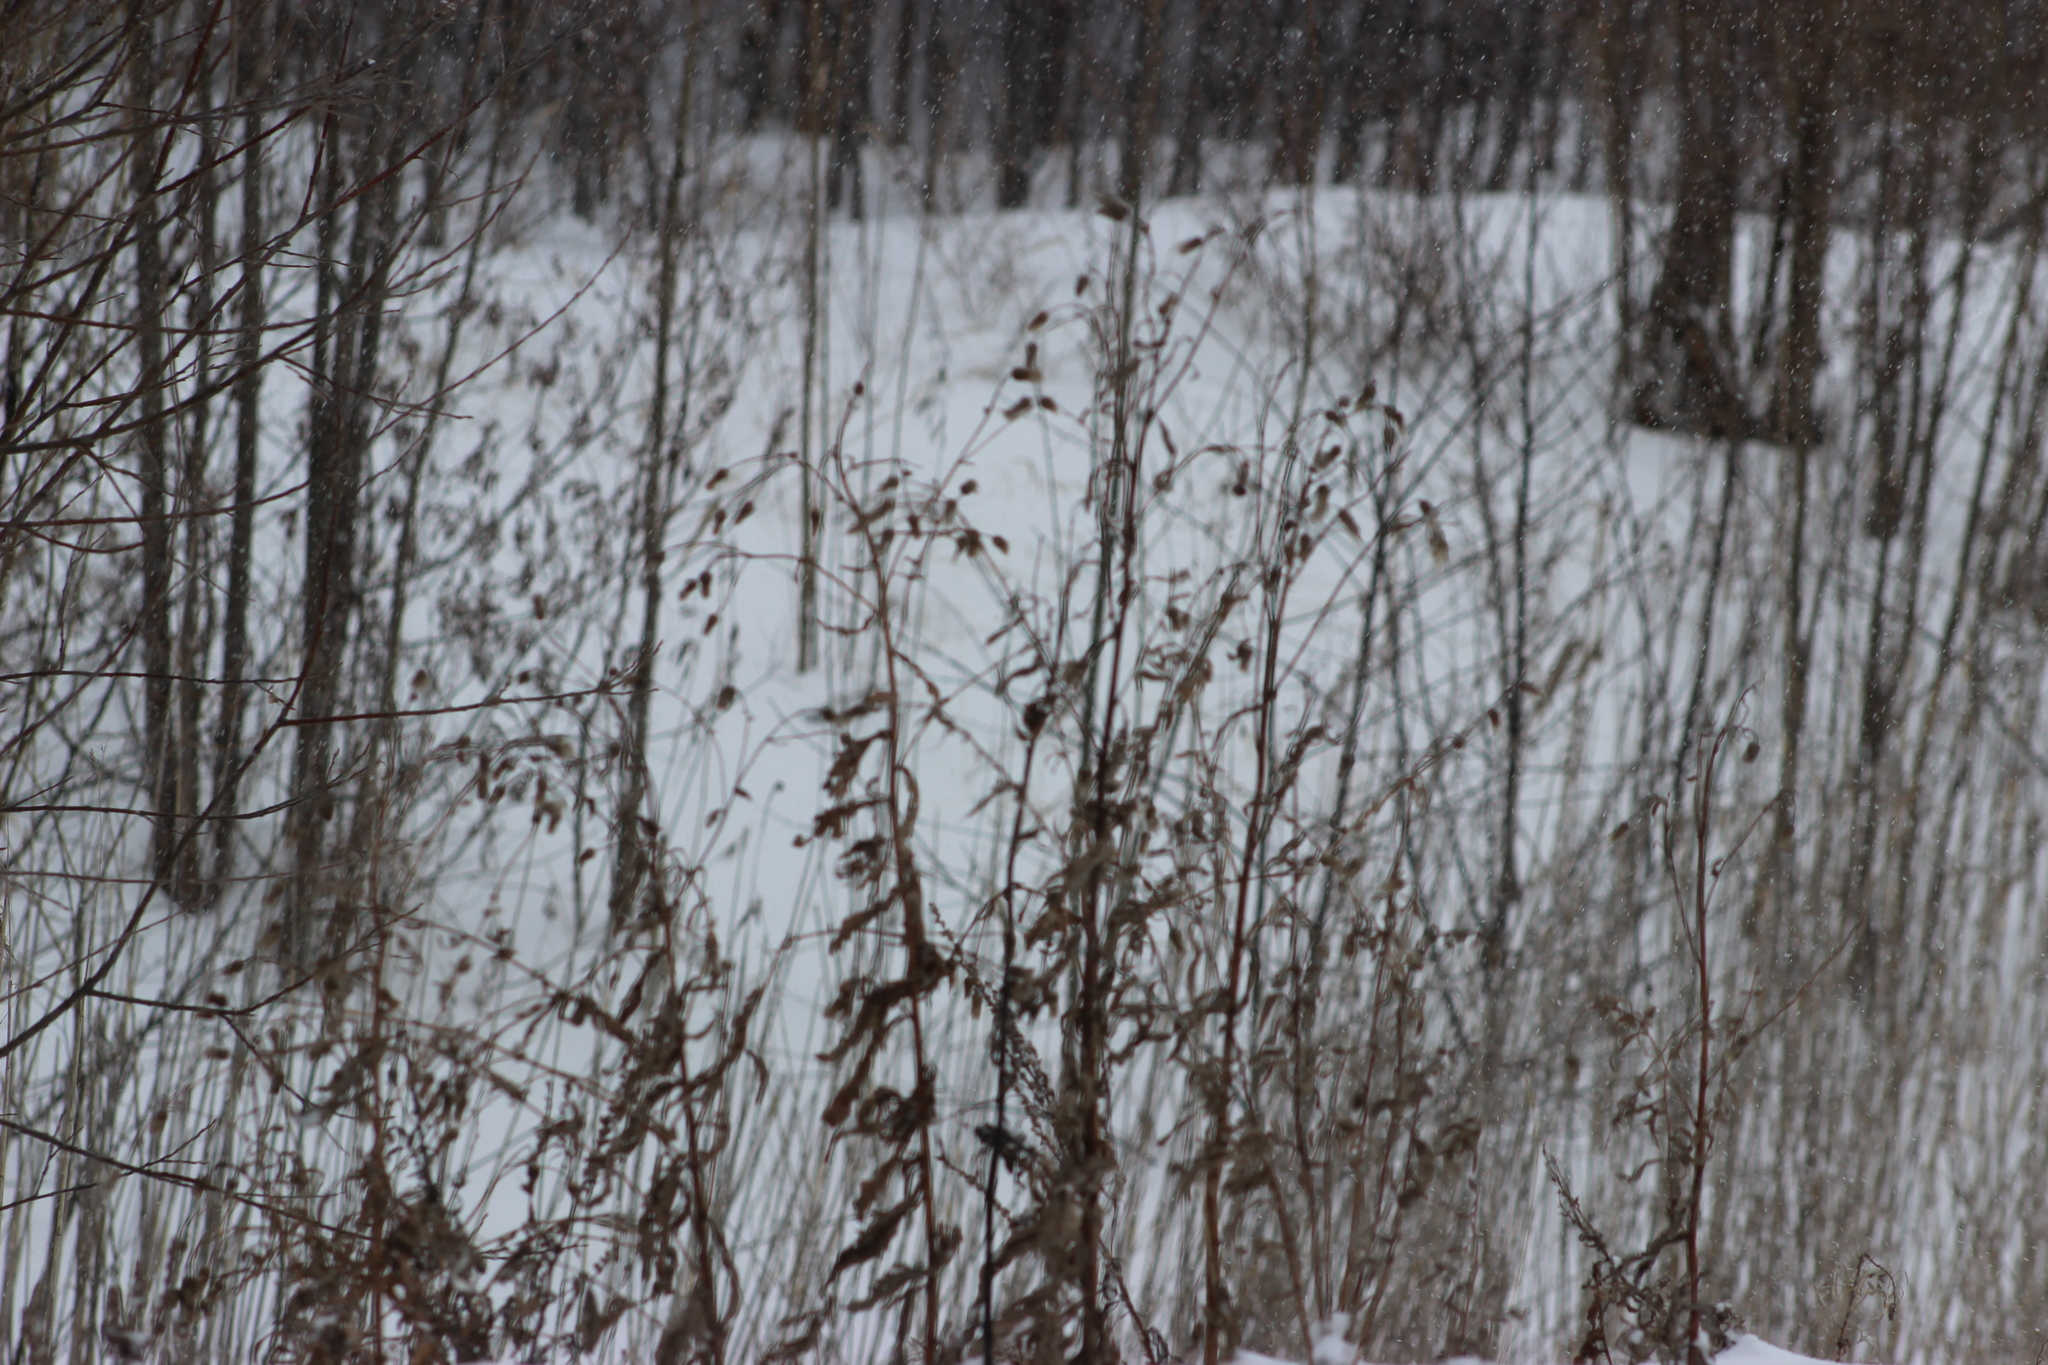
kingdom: Plantae
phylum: Tracheophyta
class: Magnoliopsida
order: Asterales
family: Asteraceae
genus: Cirsium
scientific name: Cirsium arvense
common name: Creeping thistle
